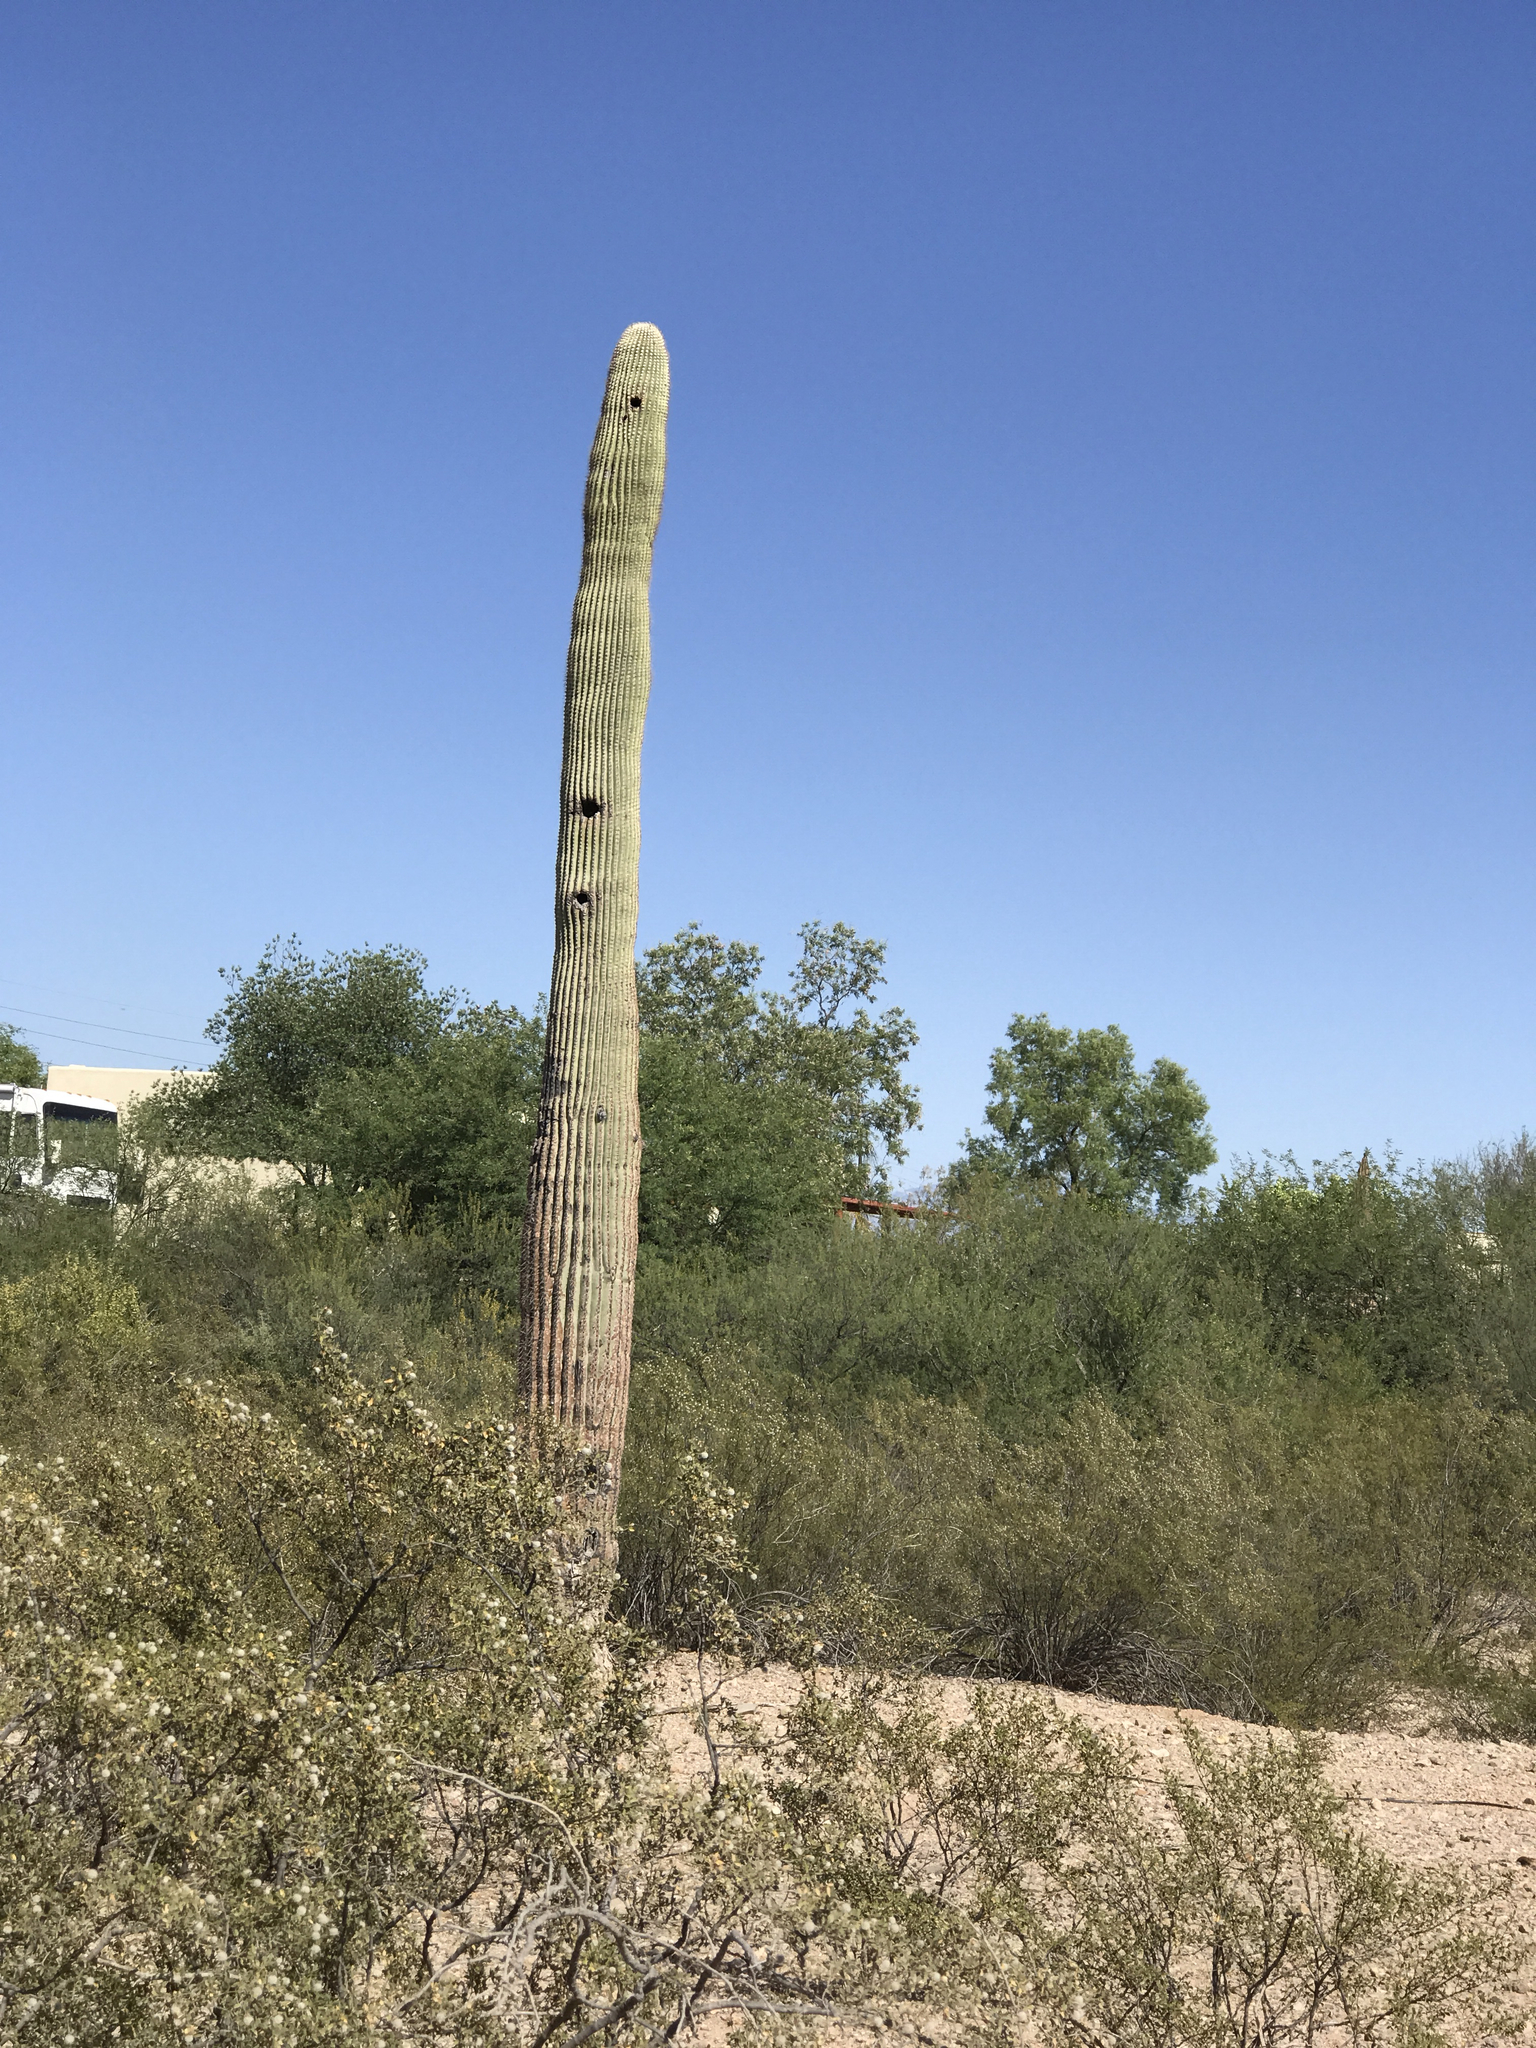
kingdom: Plantae
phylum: Tracheophyta
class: Magnoliopsida
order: Caryophyllales
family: Cactaceae
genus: Carnegiea
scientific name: Carnegiea gigantea
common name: Saguaro
